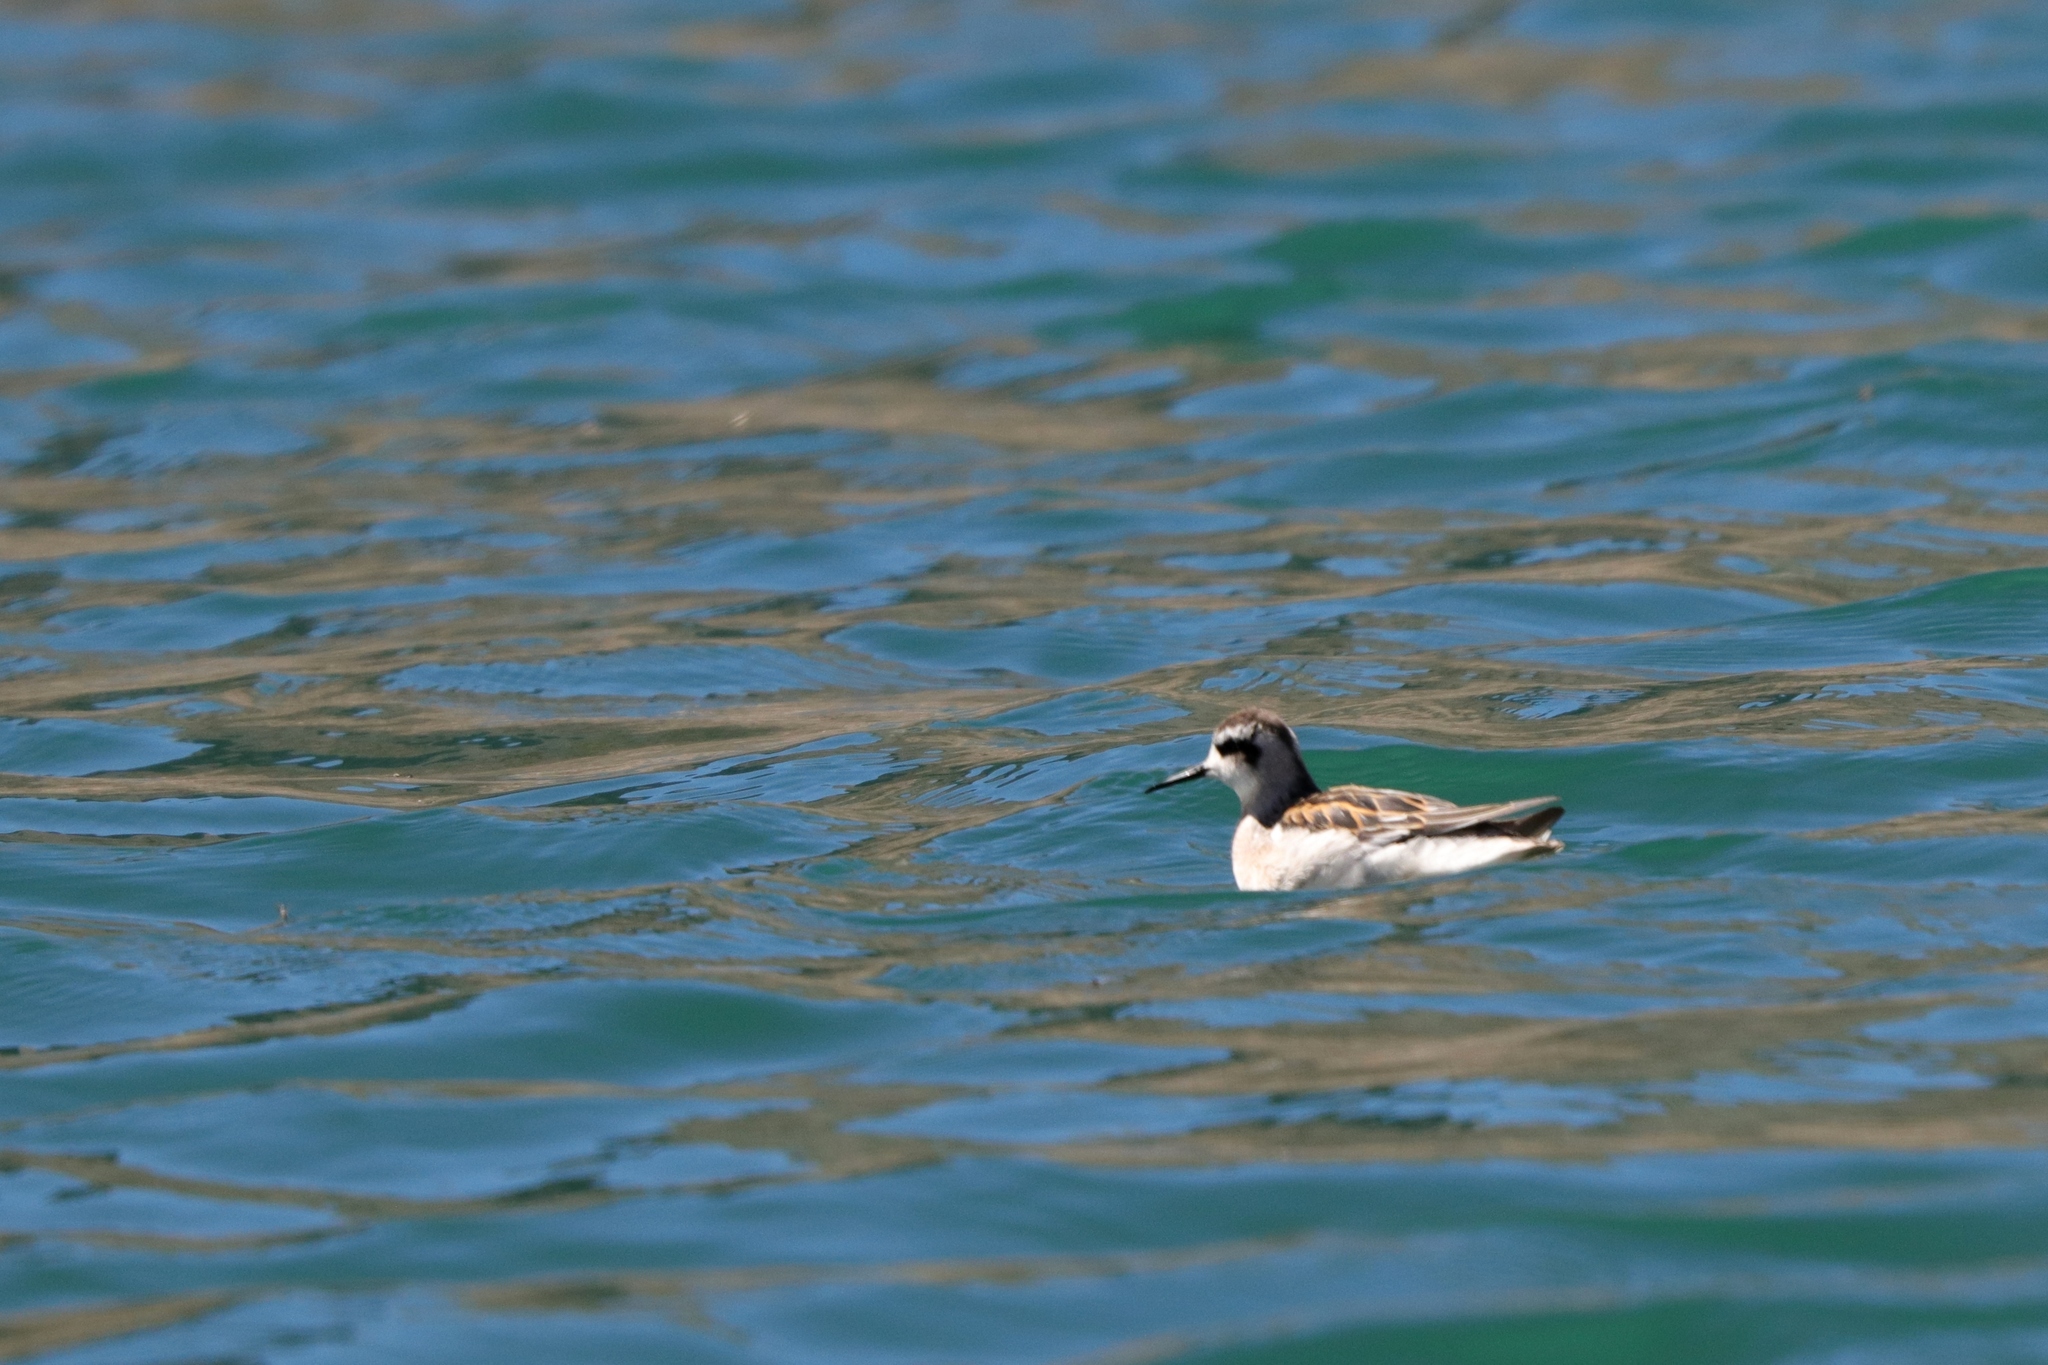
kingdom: Animalia
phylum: Chordata
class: Aves
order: Charadriiformes
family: Scolopacidae
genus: Phalaropus
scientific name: Phalaropus lobatus
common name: Red-necked phalarope
